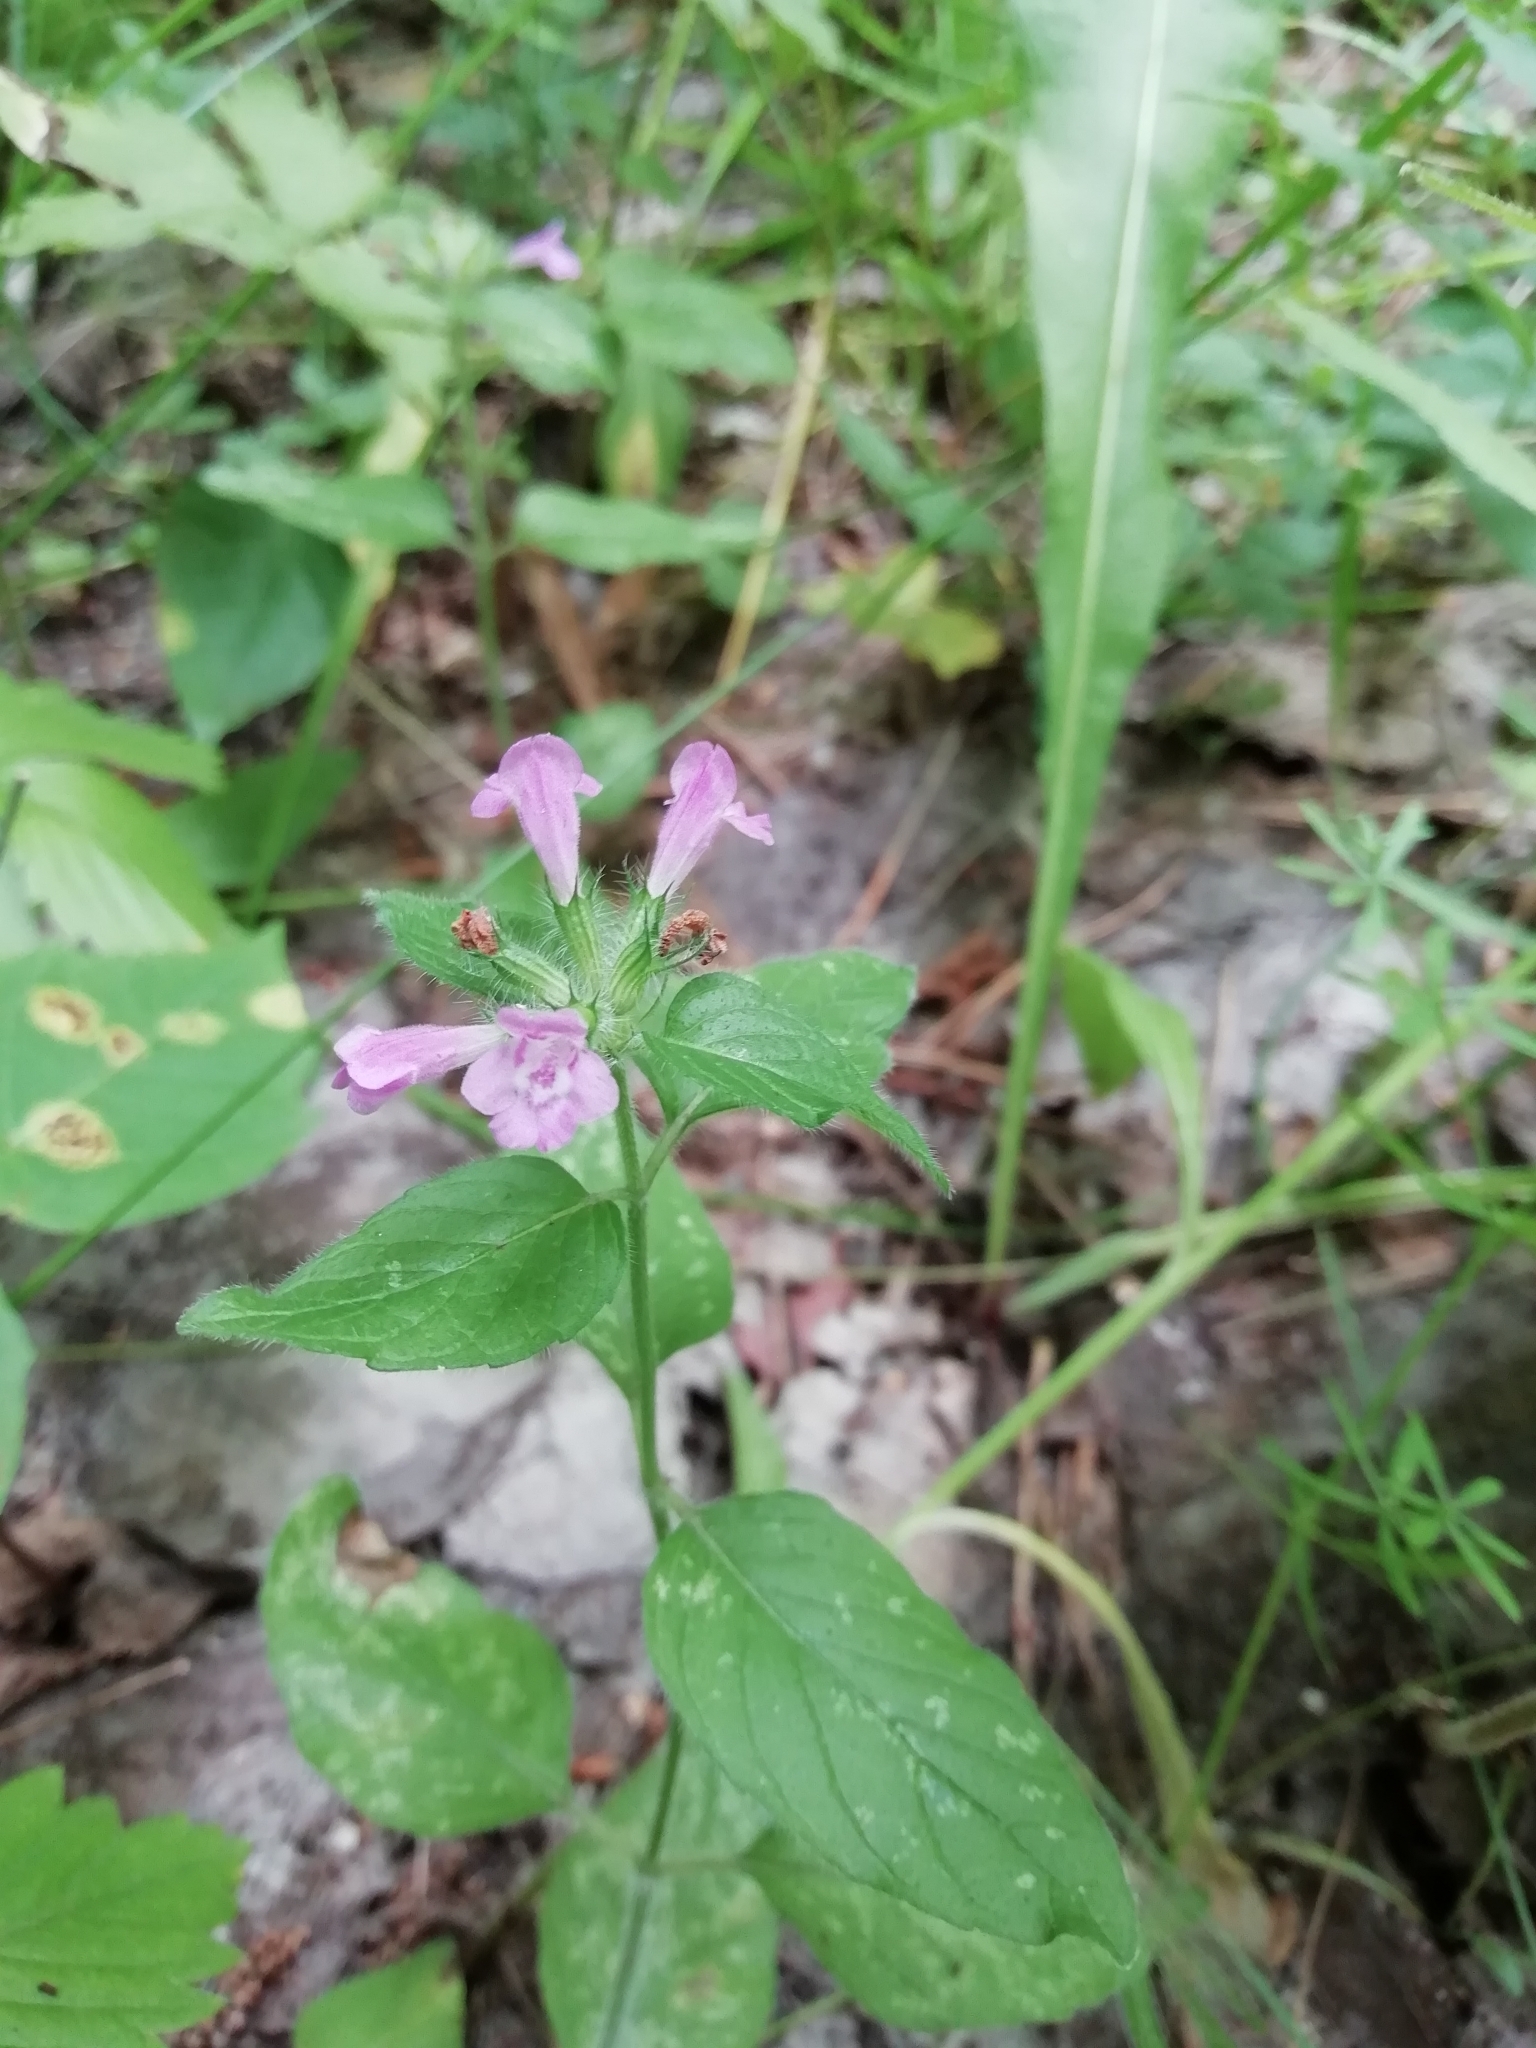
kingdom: Plantae
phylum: Tracheophyta
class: Magnoliopsida
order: Lamiales
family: Lamiaceae
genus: Clinopodium
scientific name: Clinopodium vulgare
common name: Wild basil
